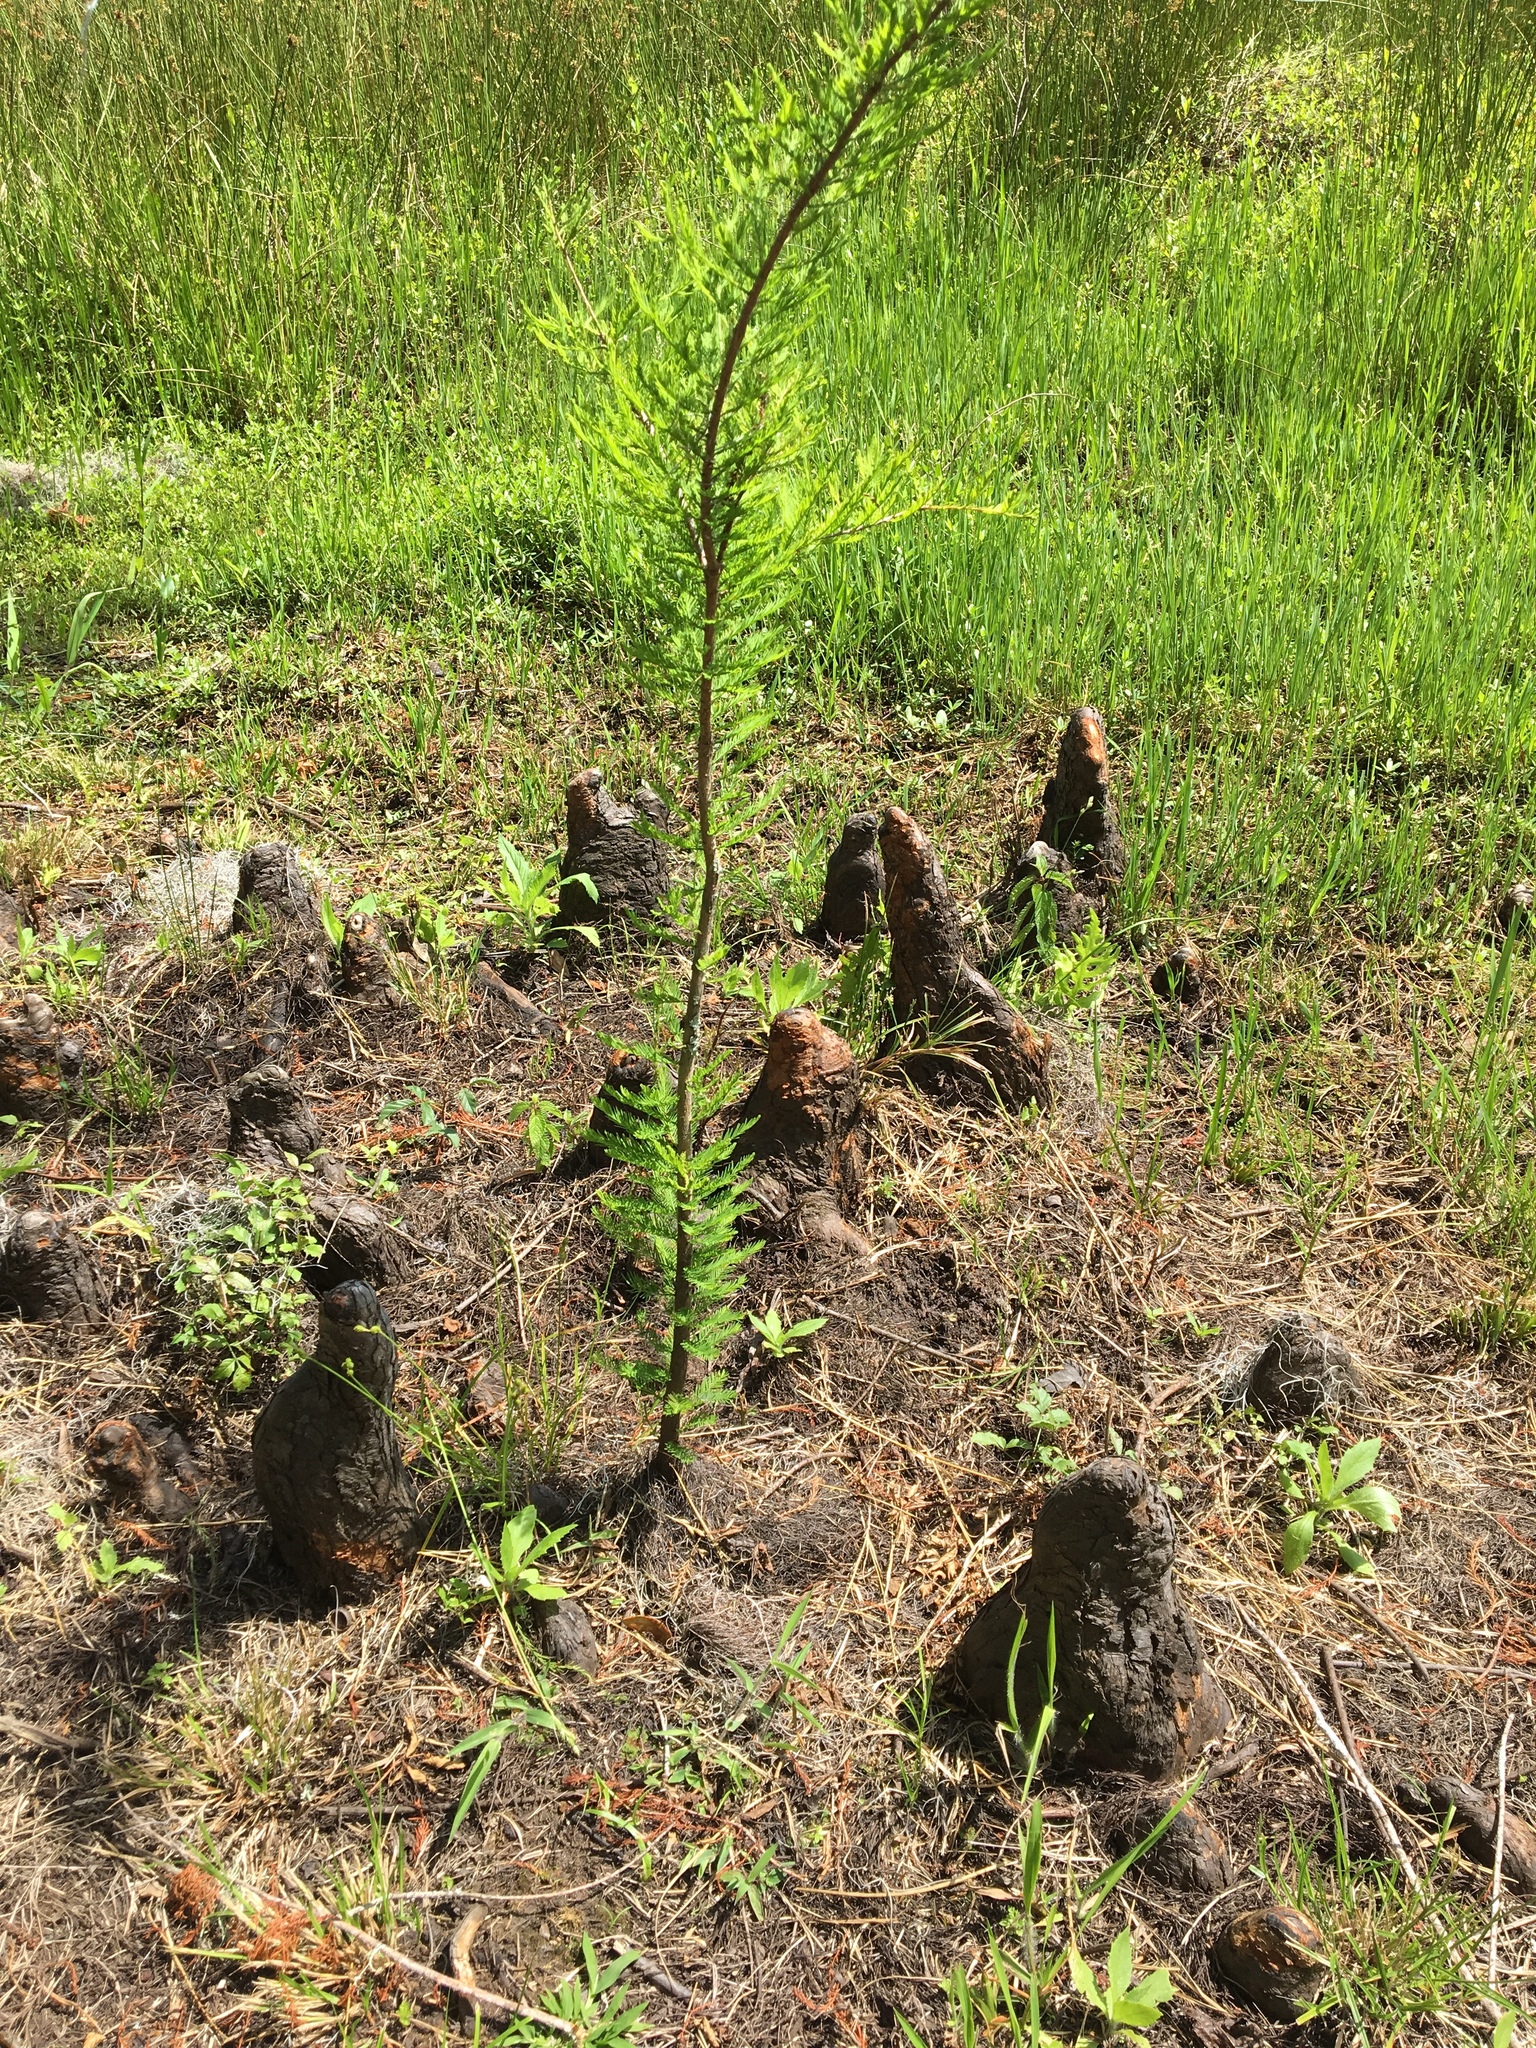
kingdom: Plantae
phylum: Tracheophyta
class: Pinopsida
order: Pinales
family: Cupressaceae
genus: Taxodium
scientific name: Taxodium distichum
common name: Bald cypress
